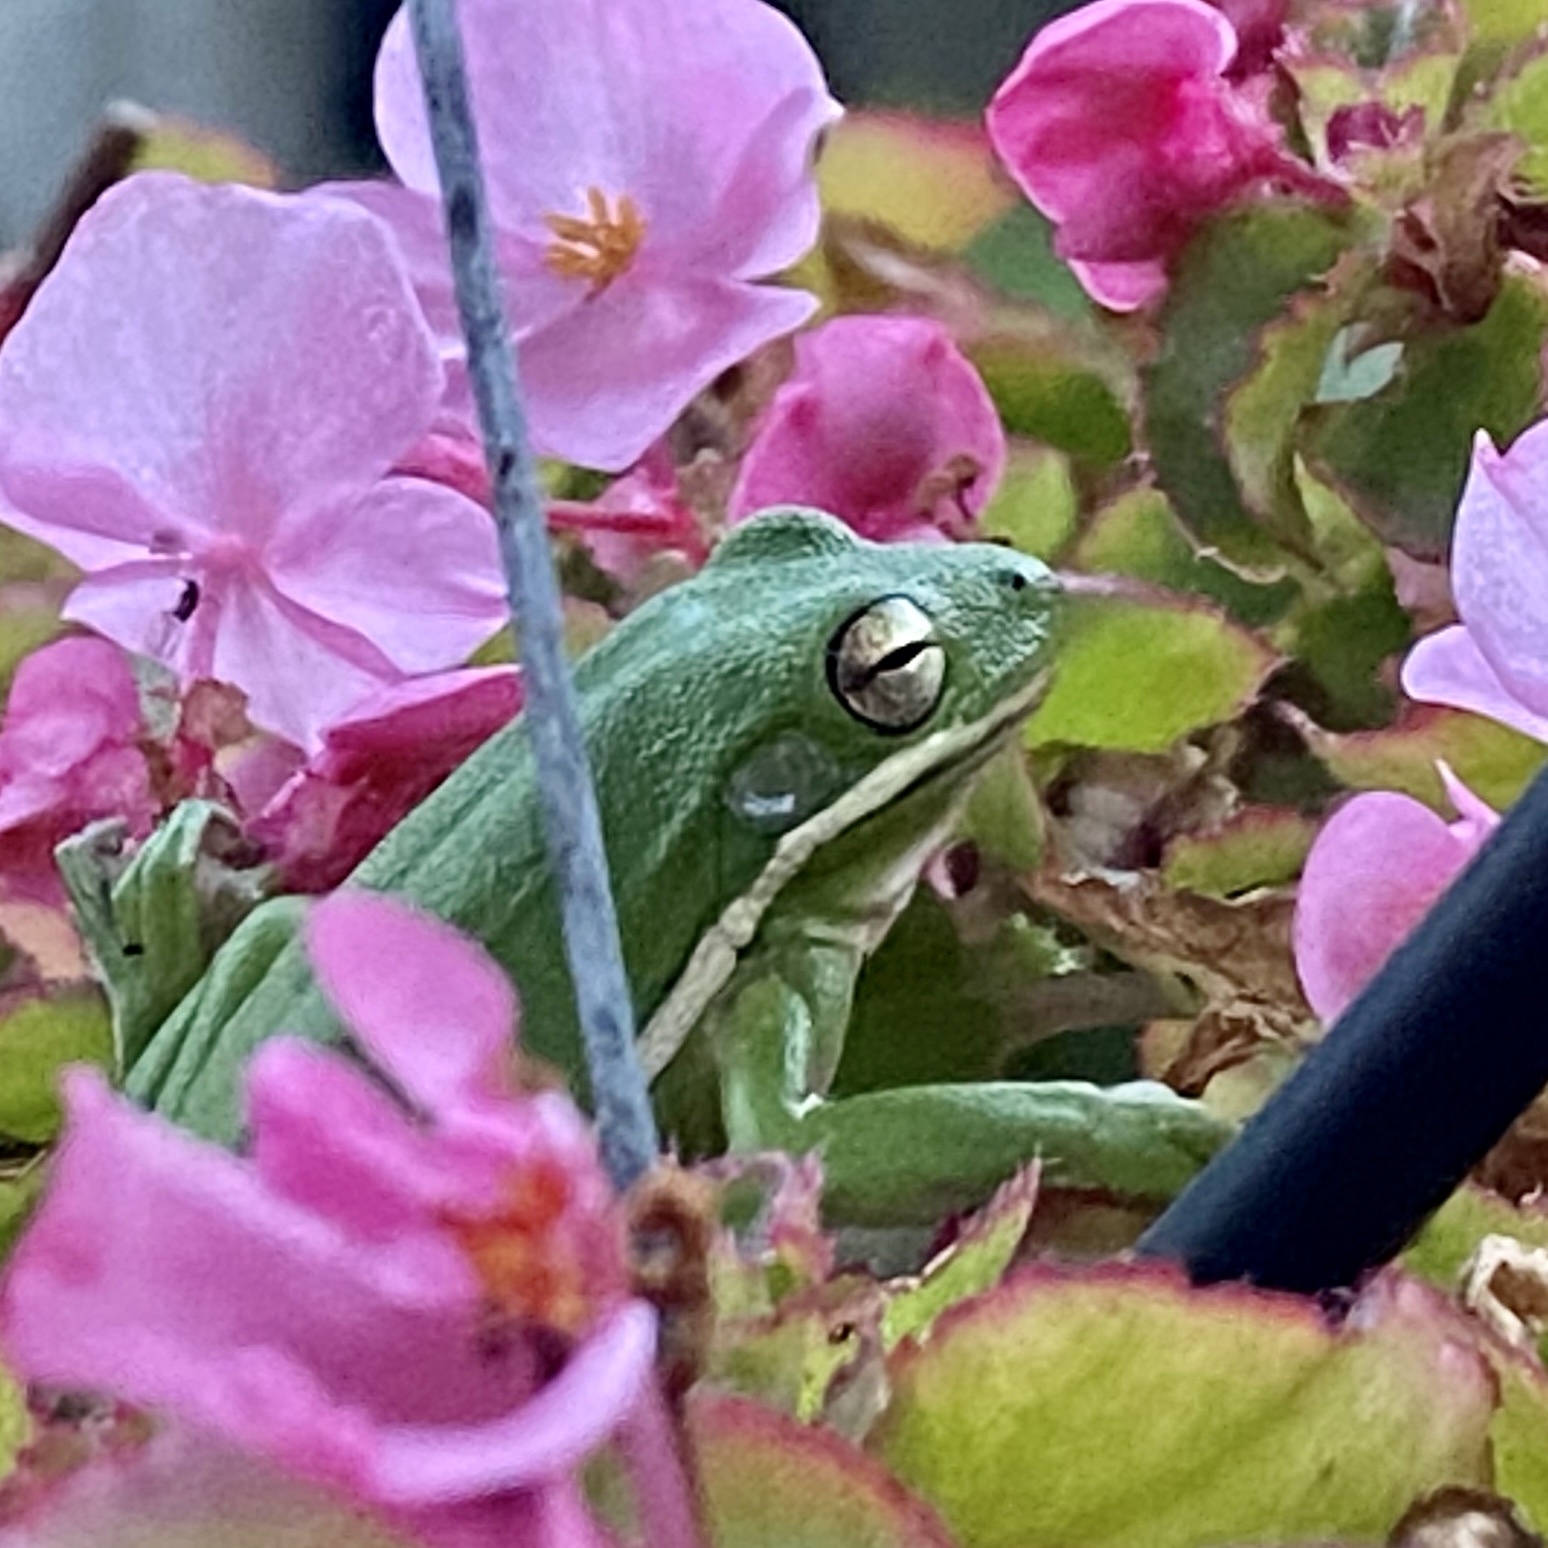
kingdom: Animalia
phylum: Chordata
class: Amphibia
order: Anura
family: Hylidae
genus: Dryophytes
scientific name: Dryophytes cinereus
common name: Green treefrog
